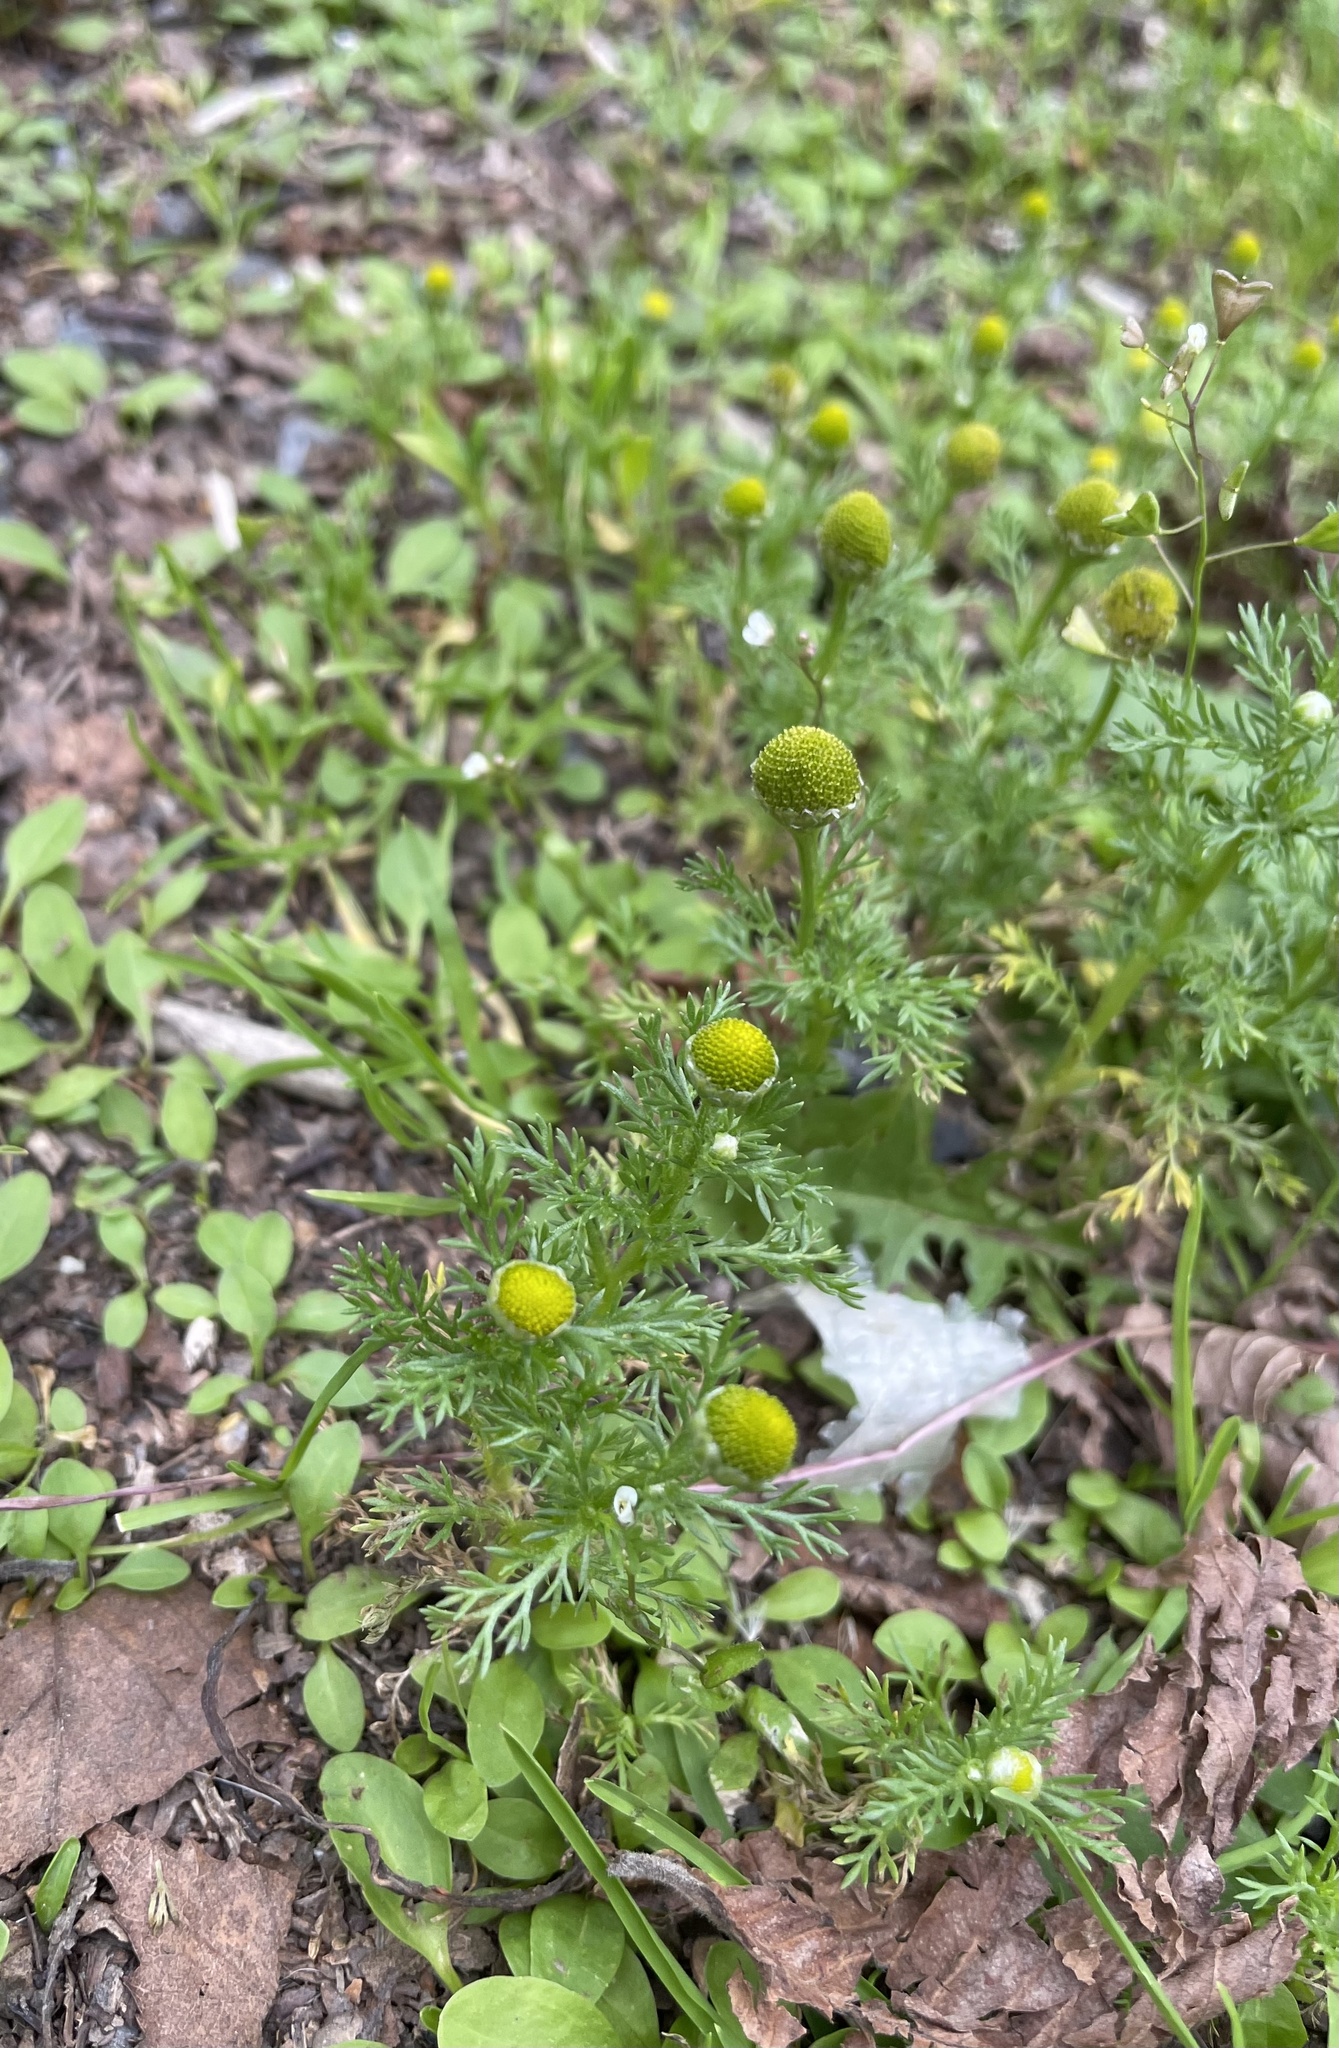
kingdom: Plantae
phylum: Tracheophyta
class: Magnoliopsida
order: Asterales
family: Asteraceae
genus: Matricaria
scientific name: Matricaria discoidea
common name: Disc mayweed
